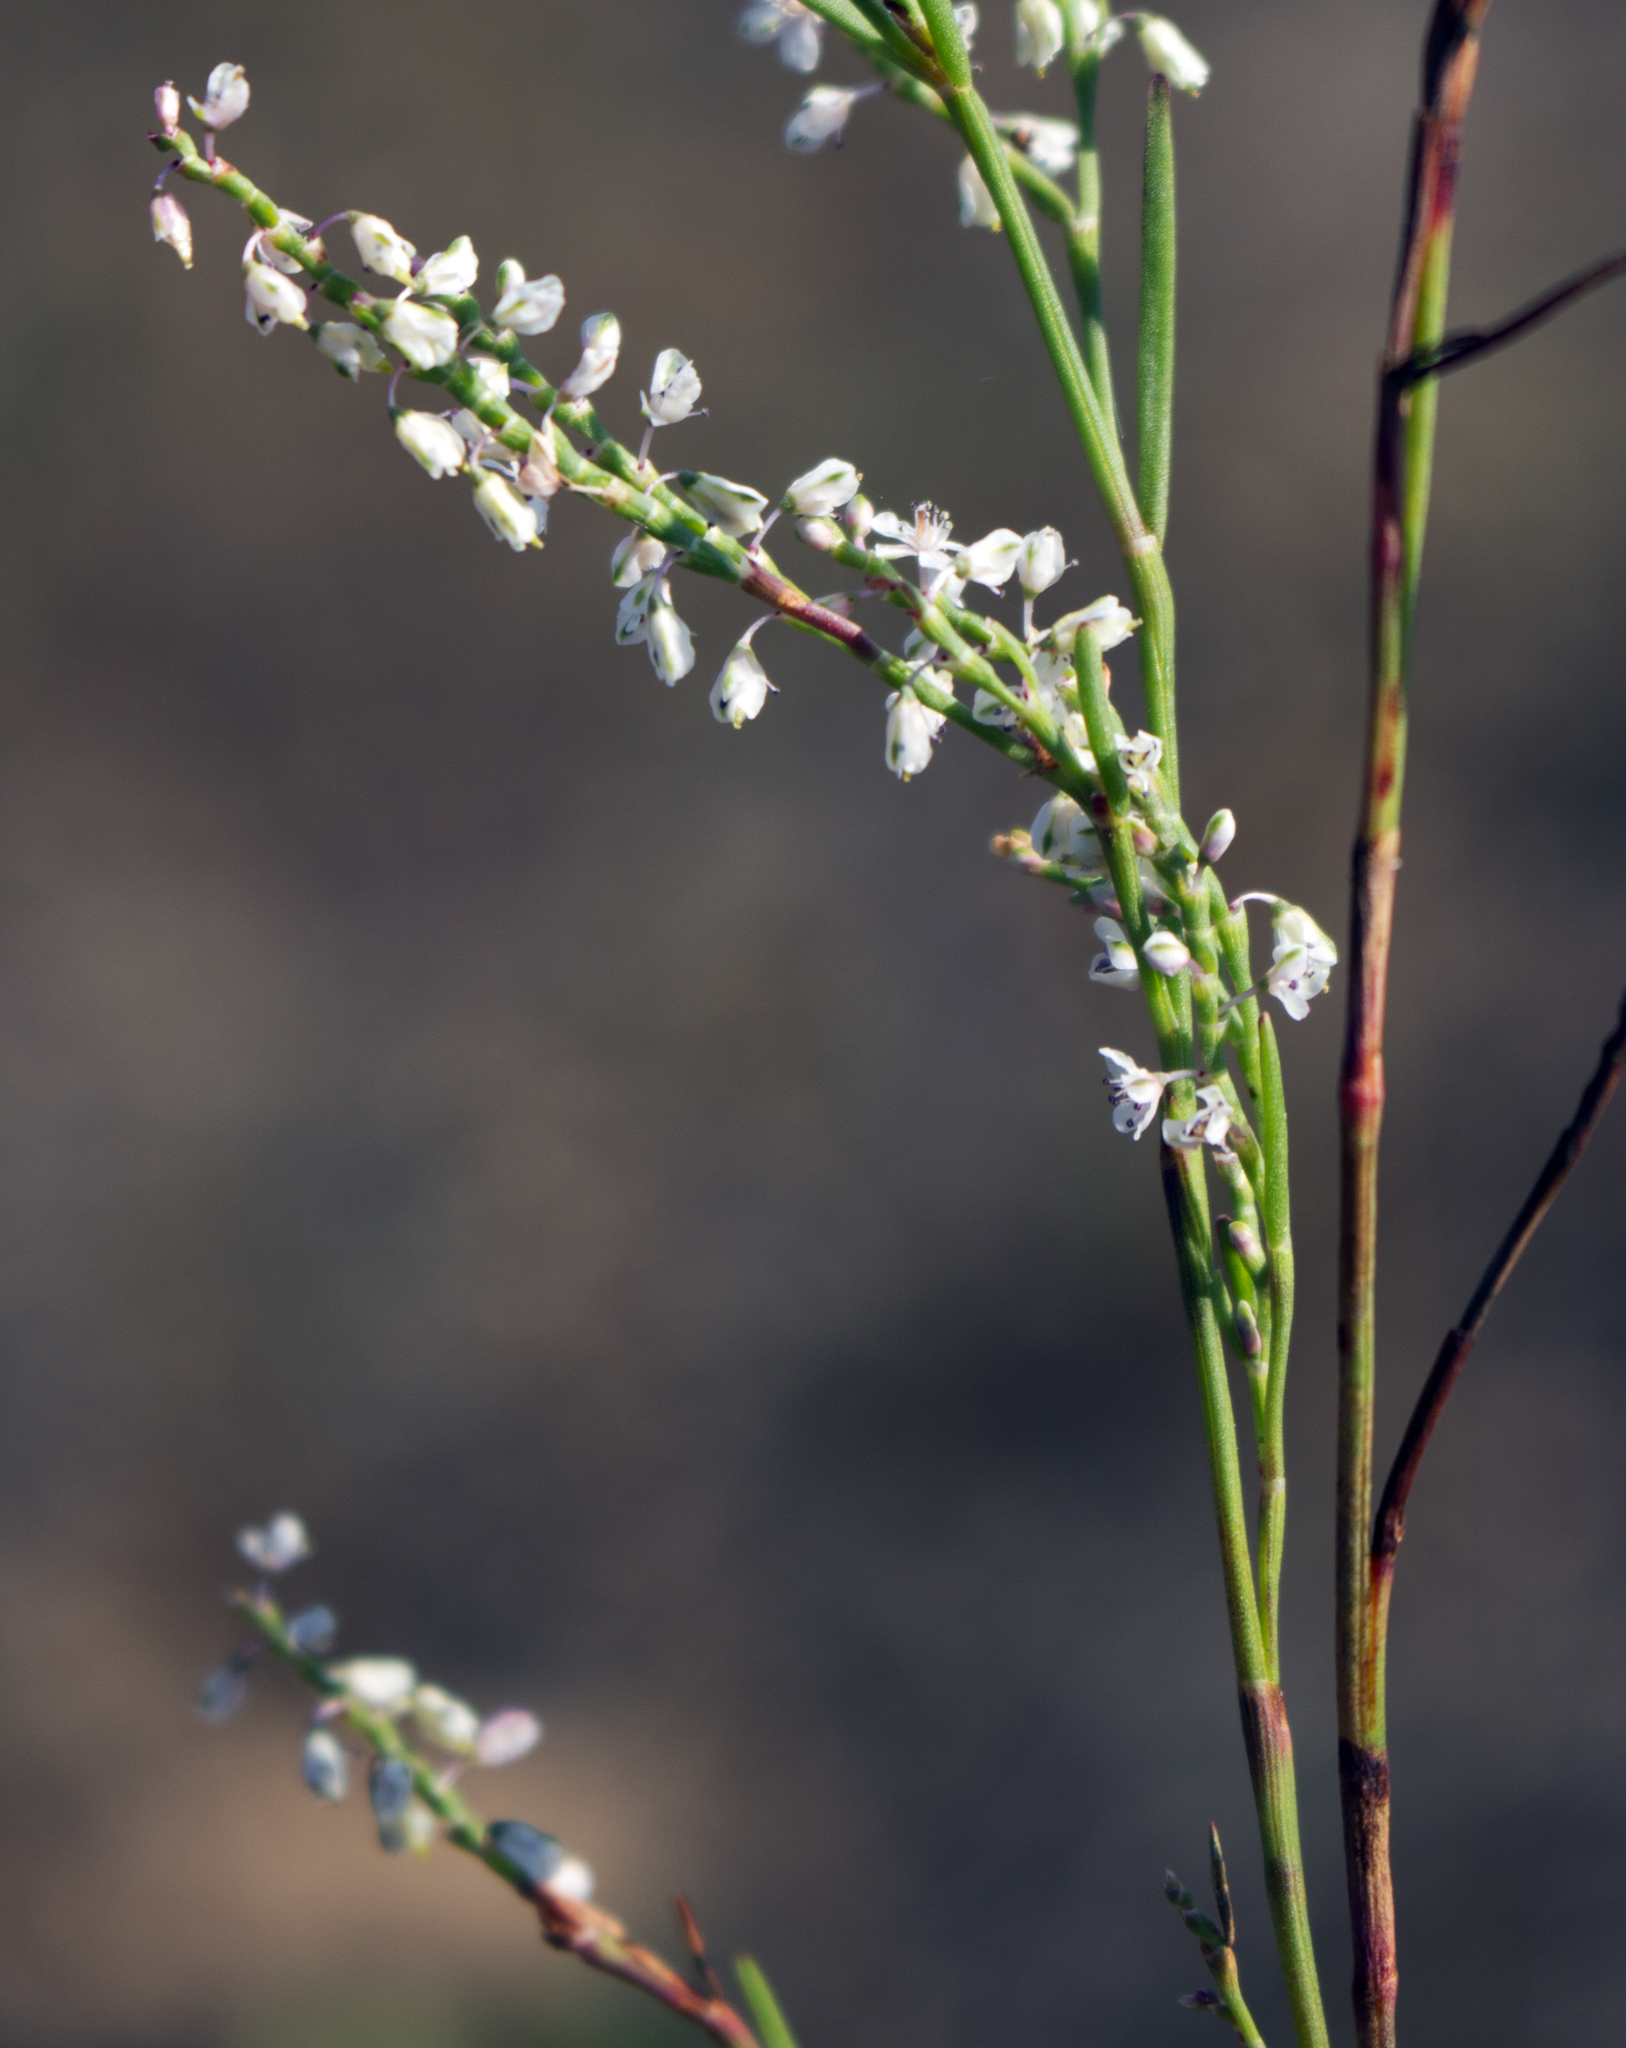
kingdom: Plantae
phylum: Tracheophyta
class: Magnoliopsida
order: Caryophyllales
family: Polygonaceae
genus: Polygonella
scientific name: Polygonella articulata
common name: Coastal jointweed
